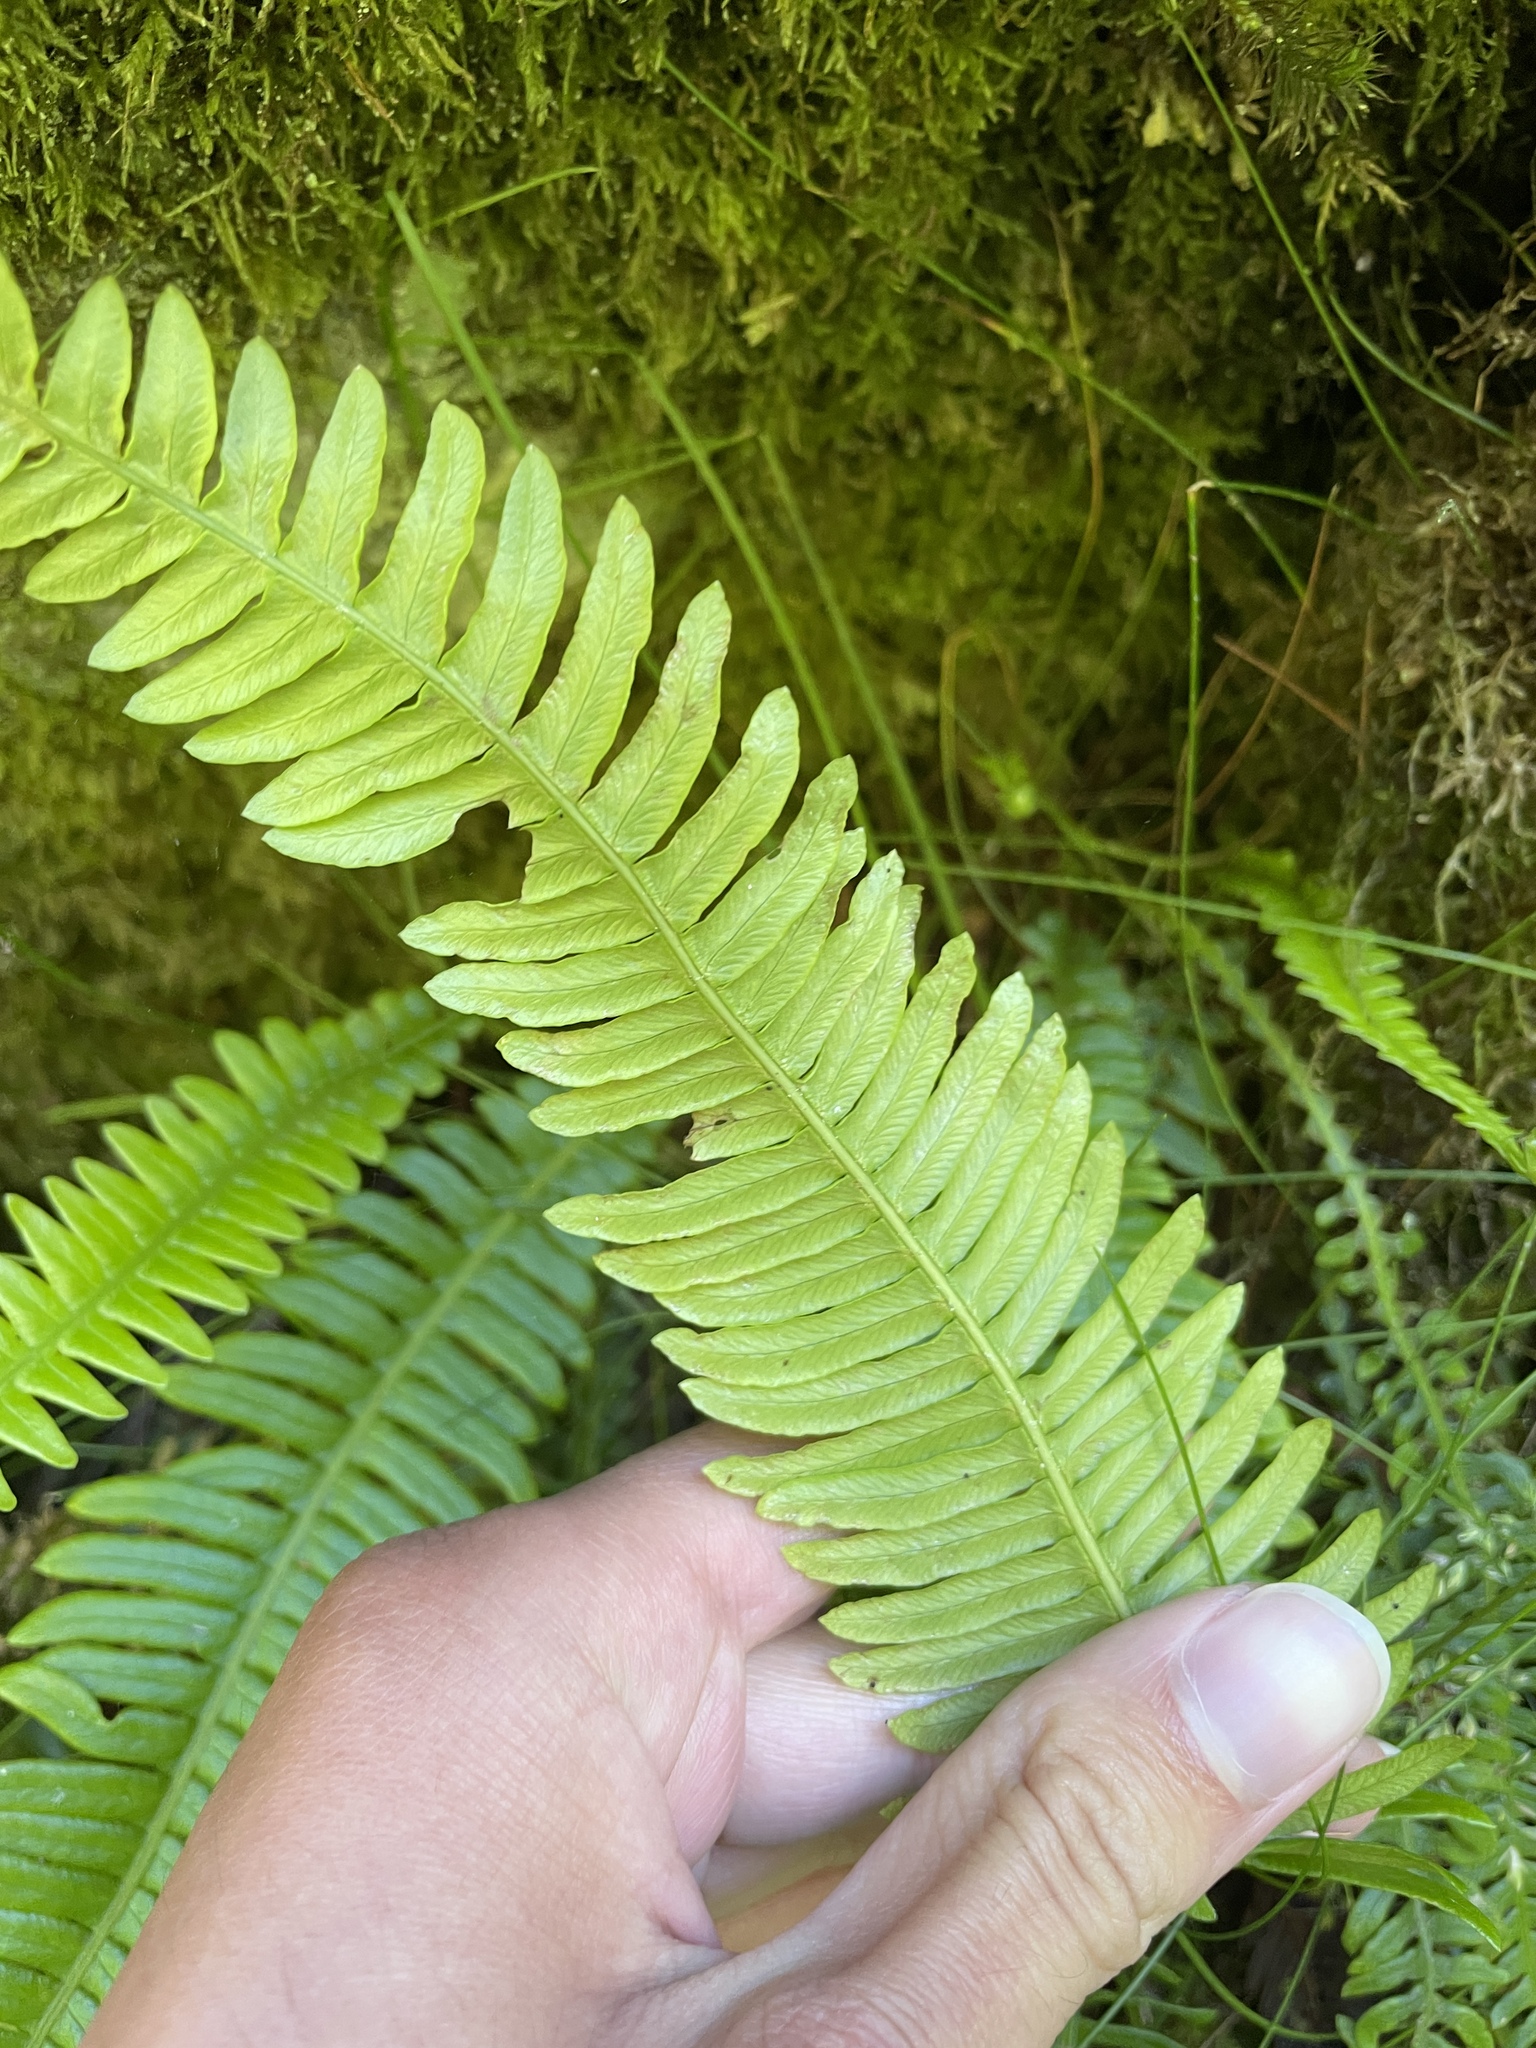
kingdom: Plantae
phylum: Tracheophyta
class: Polypodiopsida
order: Polypodiales
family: Blechnaceae
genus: Struthiopteris
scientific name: Struthiopteris spicant
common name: Deer fern
